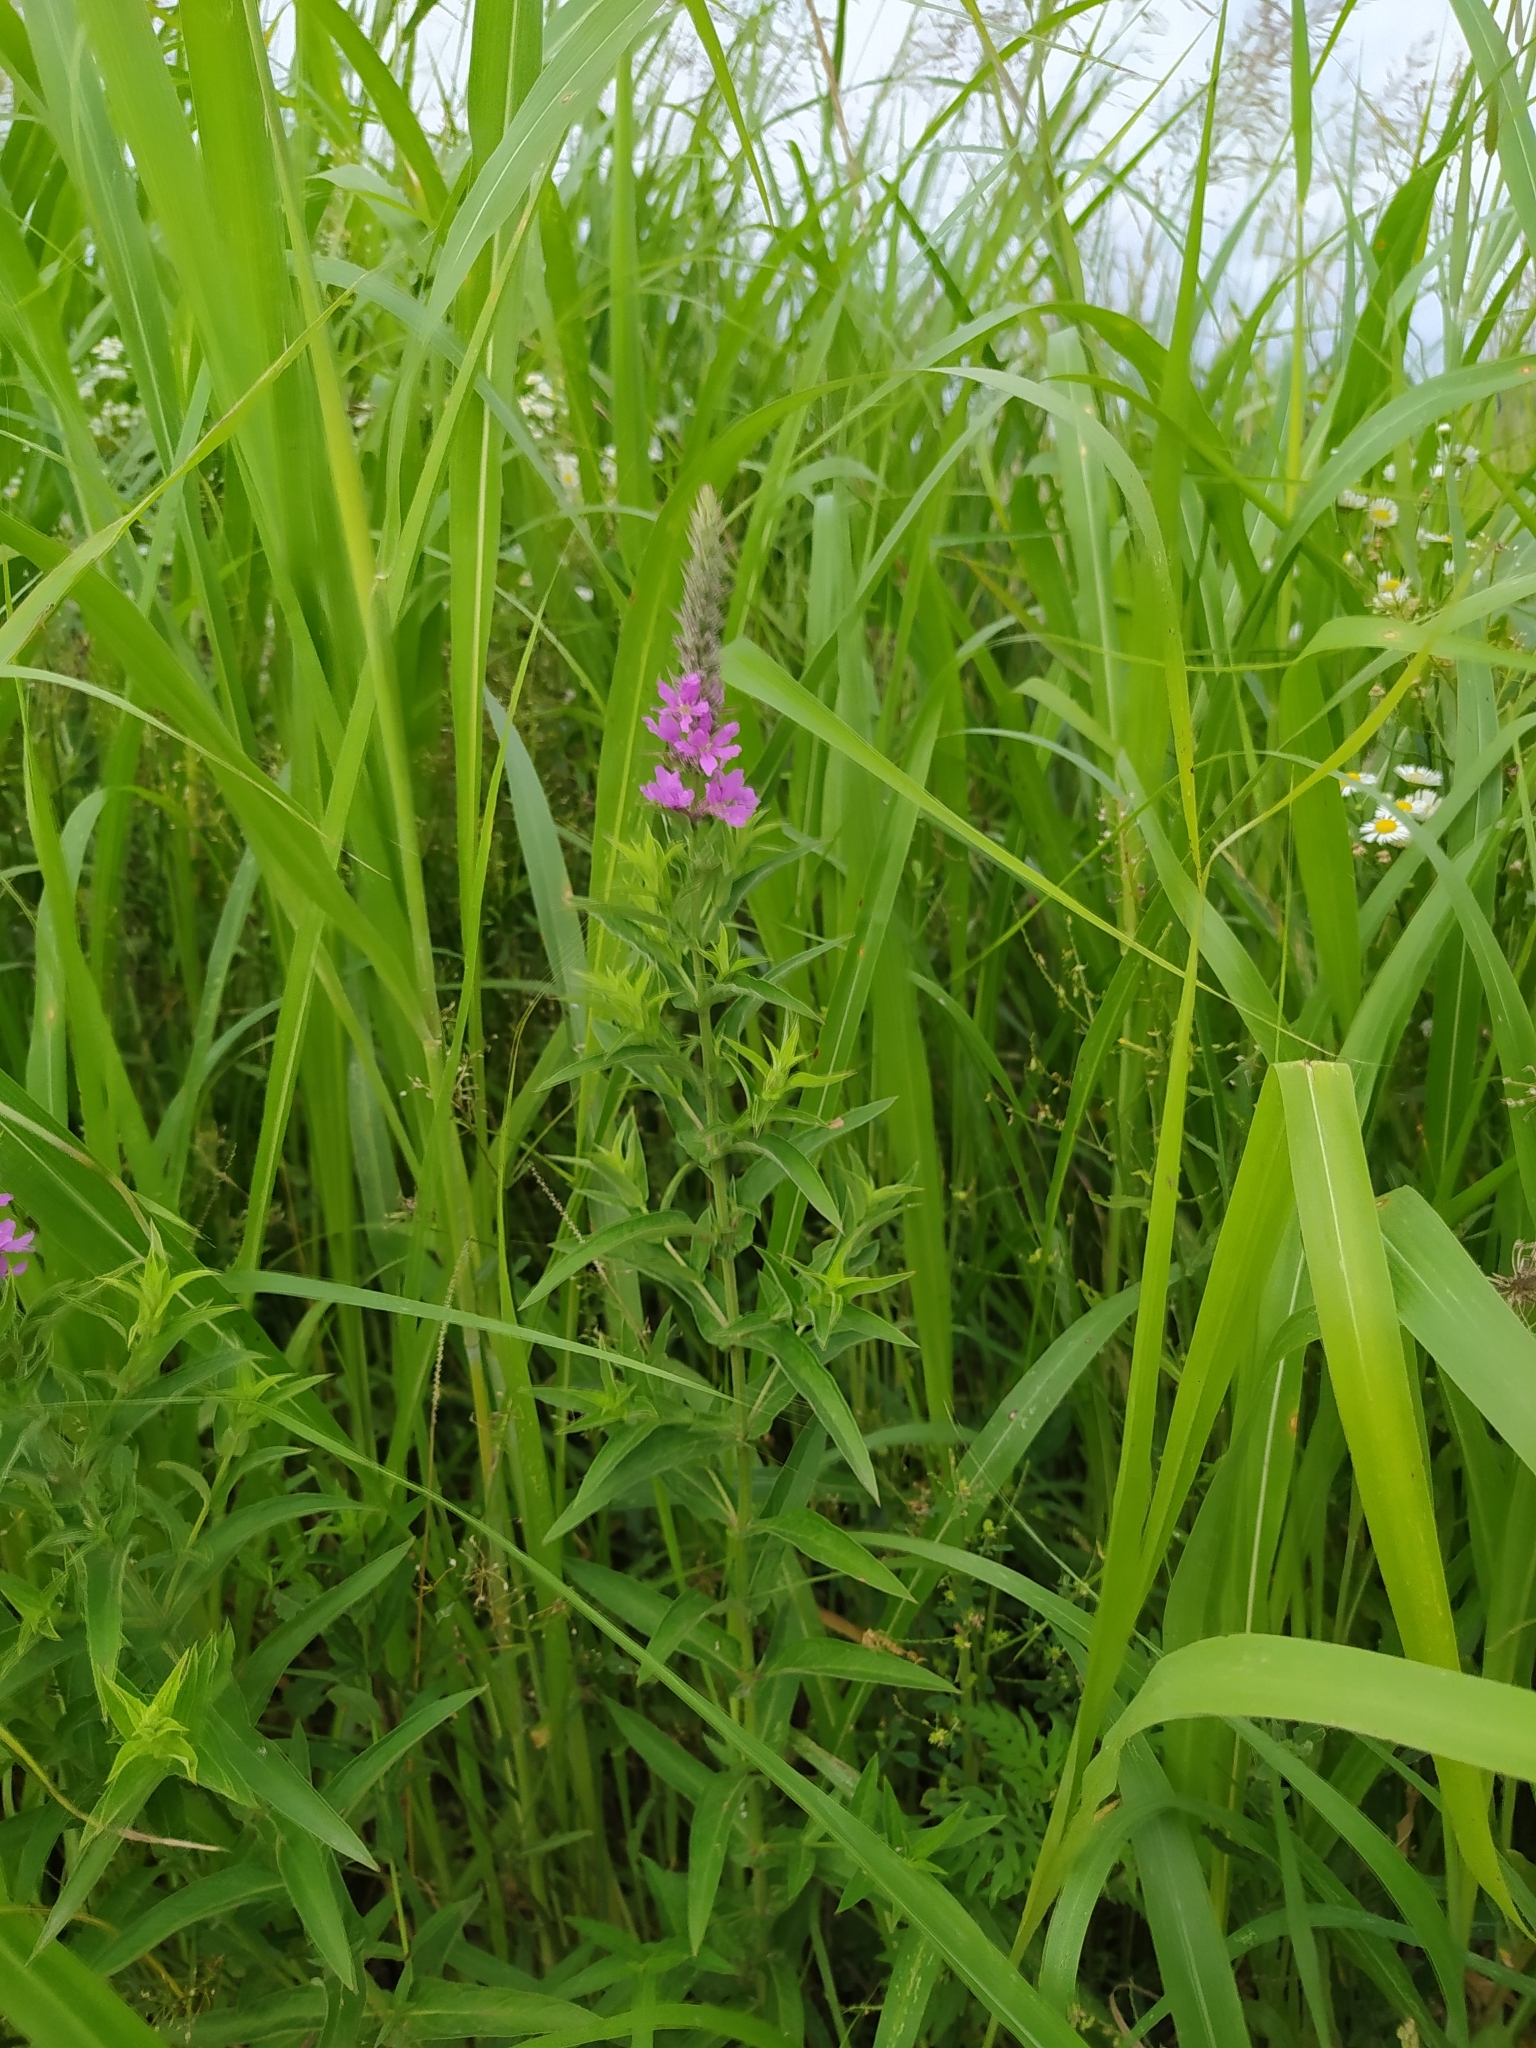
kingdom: Plantae
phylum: Tracheophyta
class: Magnoliopsida
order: Myrtales
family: Lythraceae
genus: Lythrum
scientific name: Lythrum salicaria
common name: Purple loosestrife
